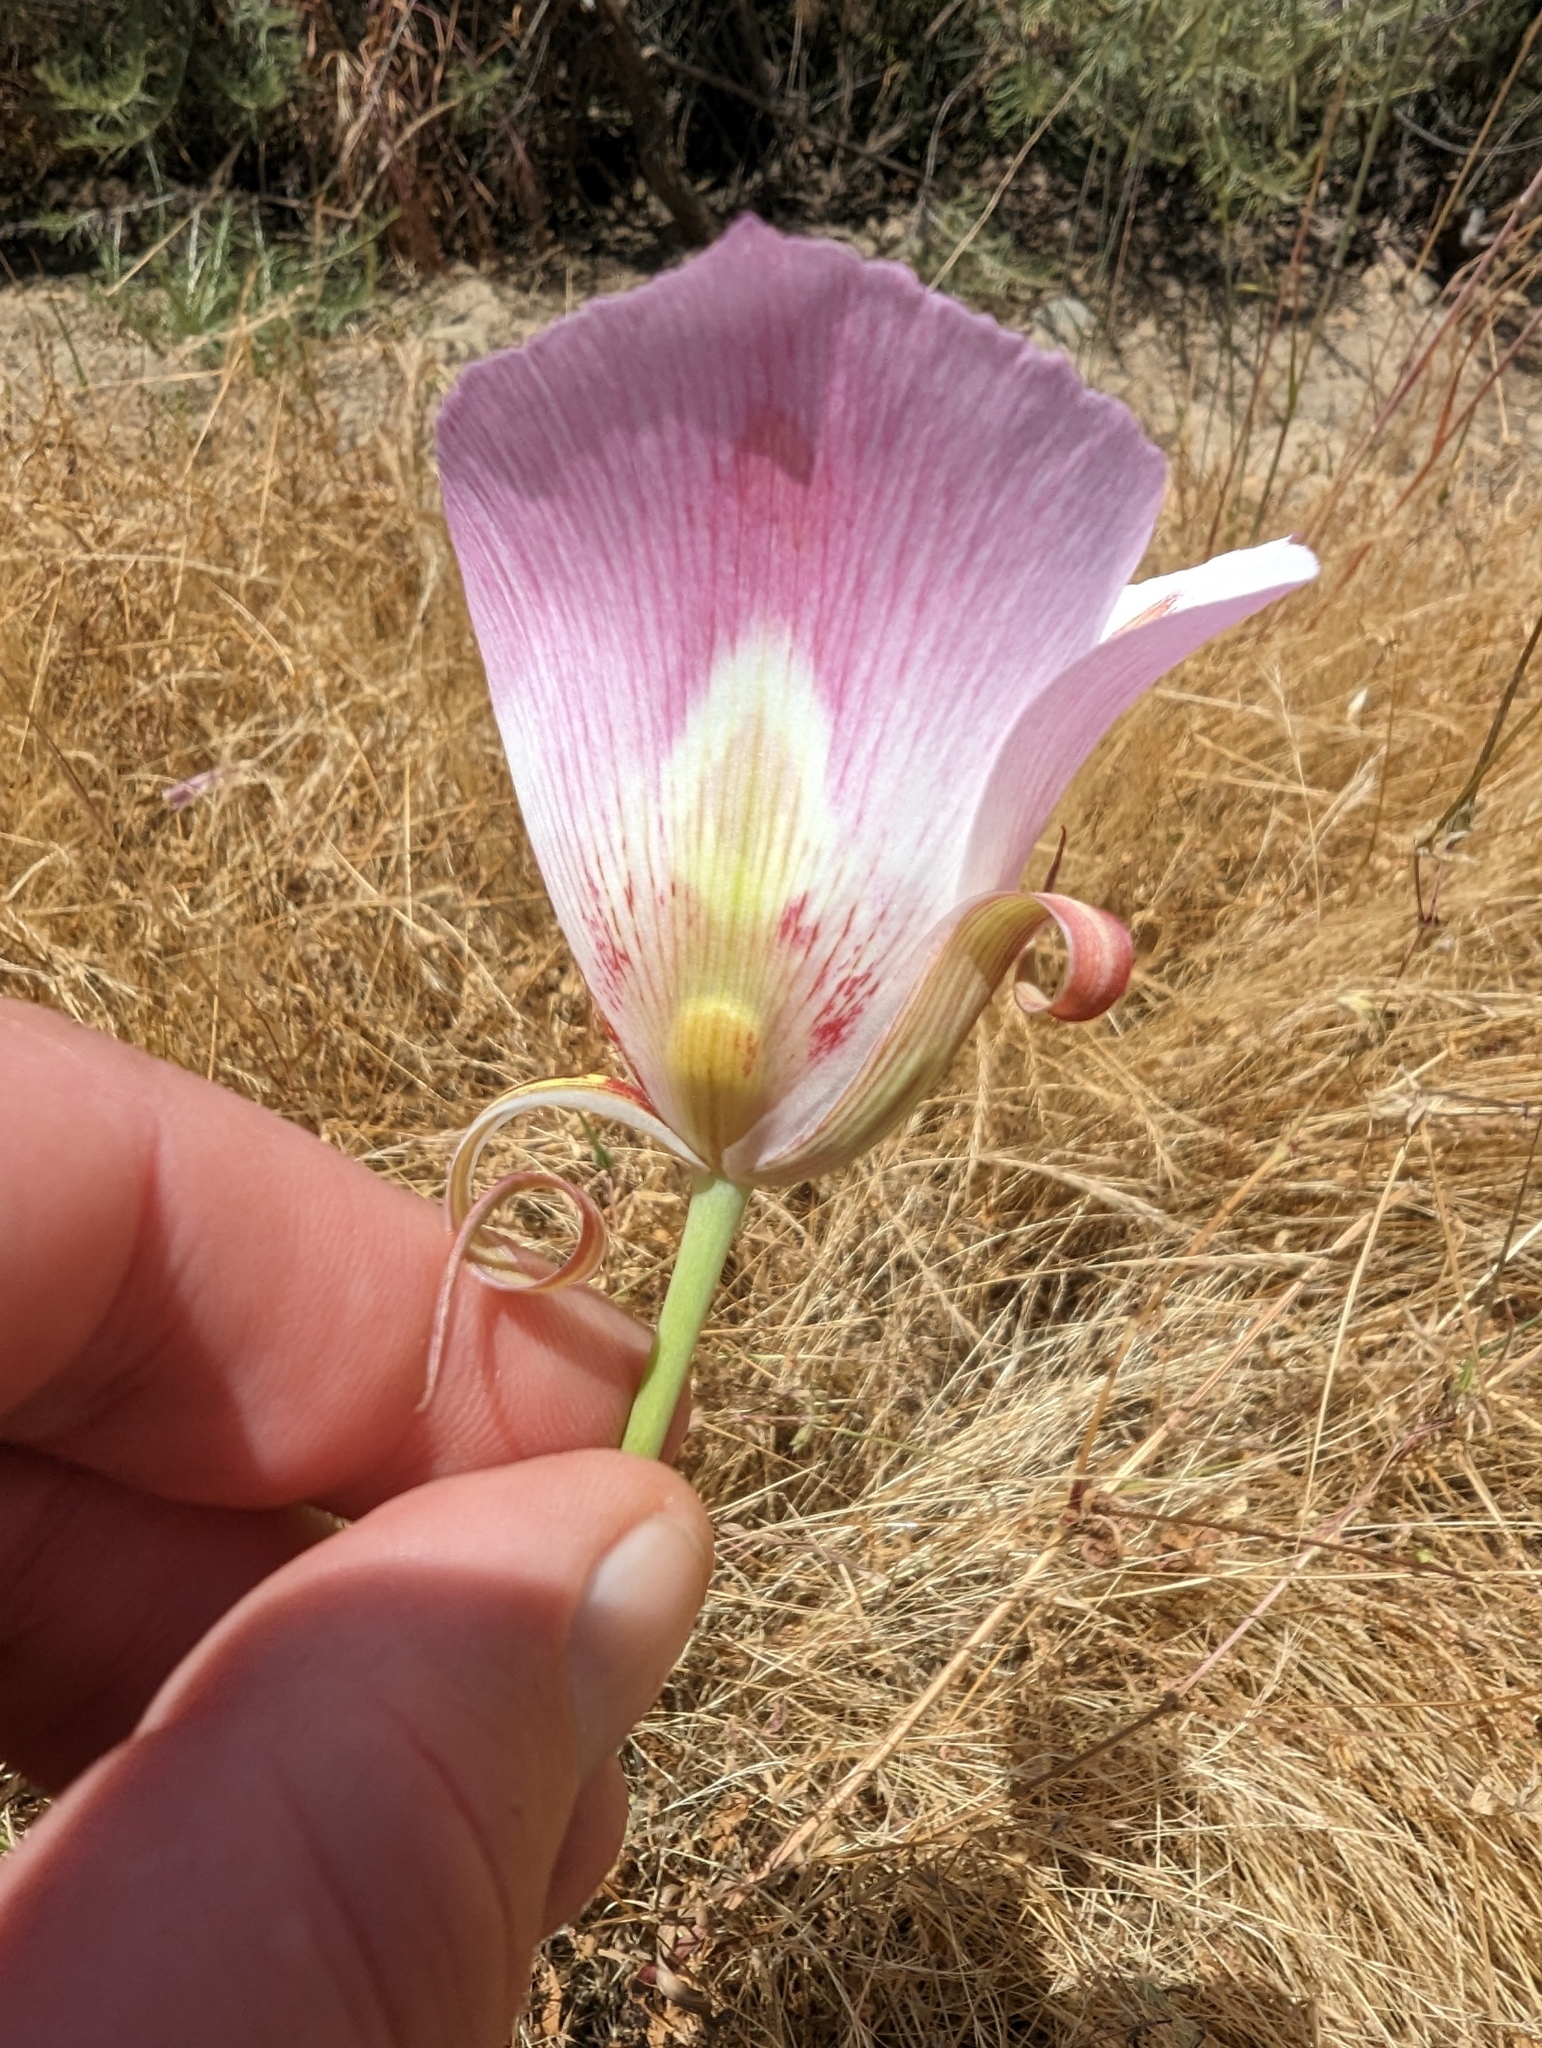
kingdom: Plantae
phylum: Tracheophyta
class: Liliopsida
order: Liliales
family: Liliaceae
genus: Calochortus
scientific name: Calochortus venustus
